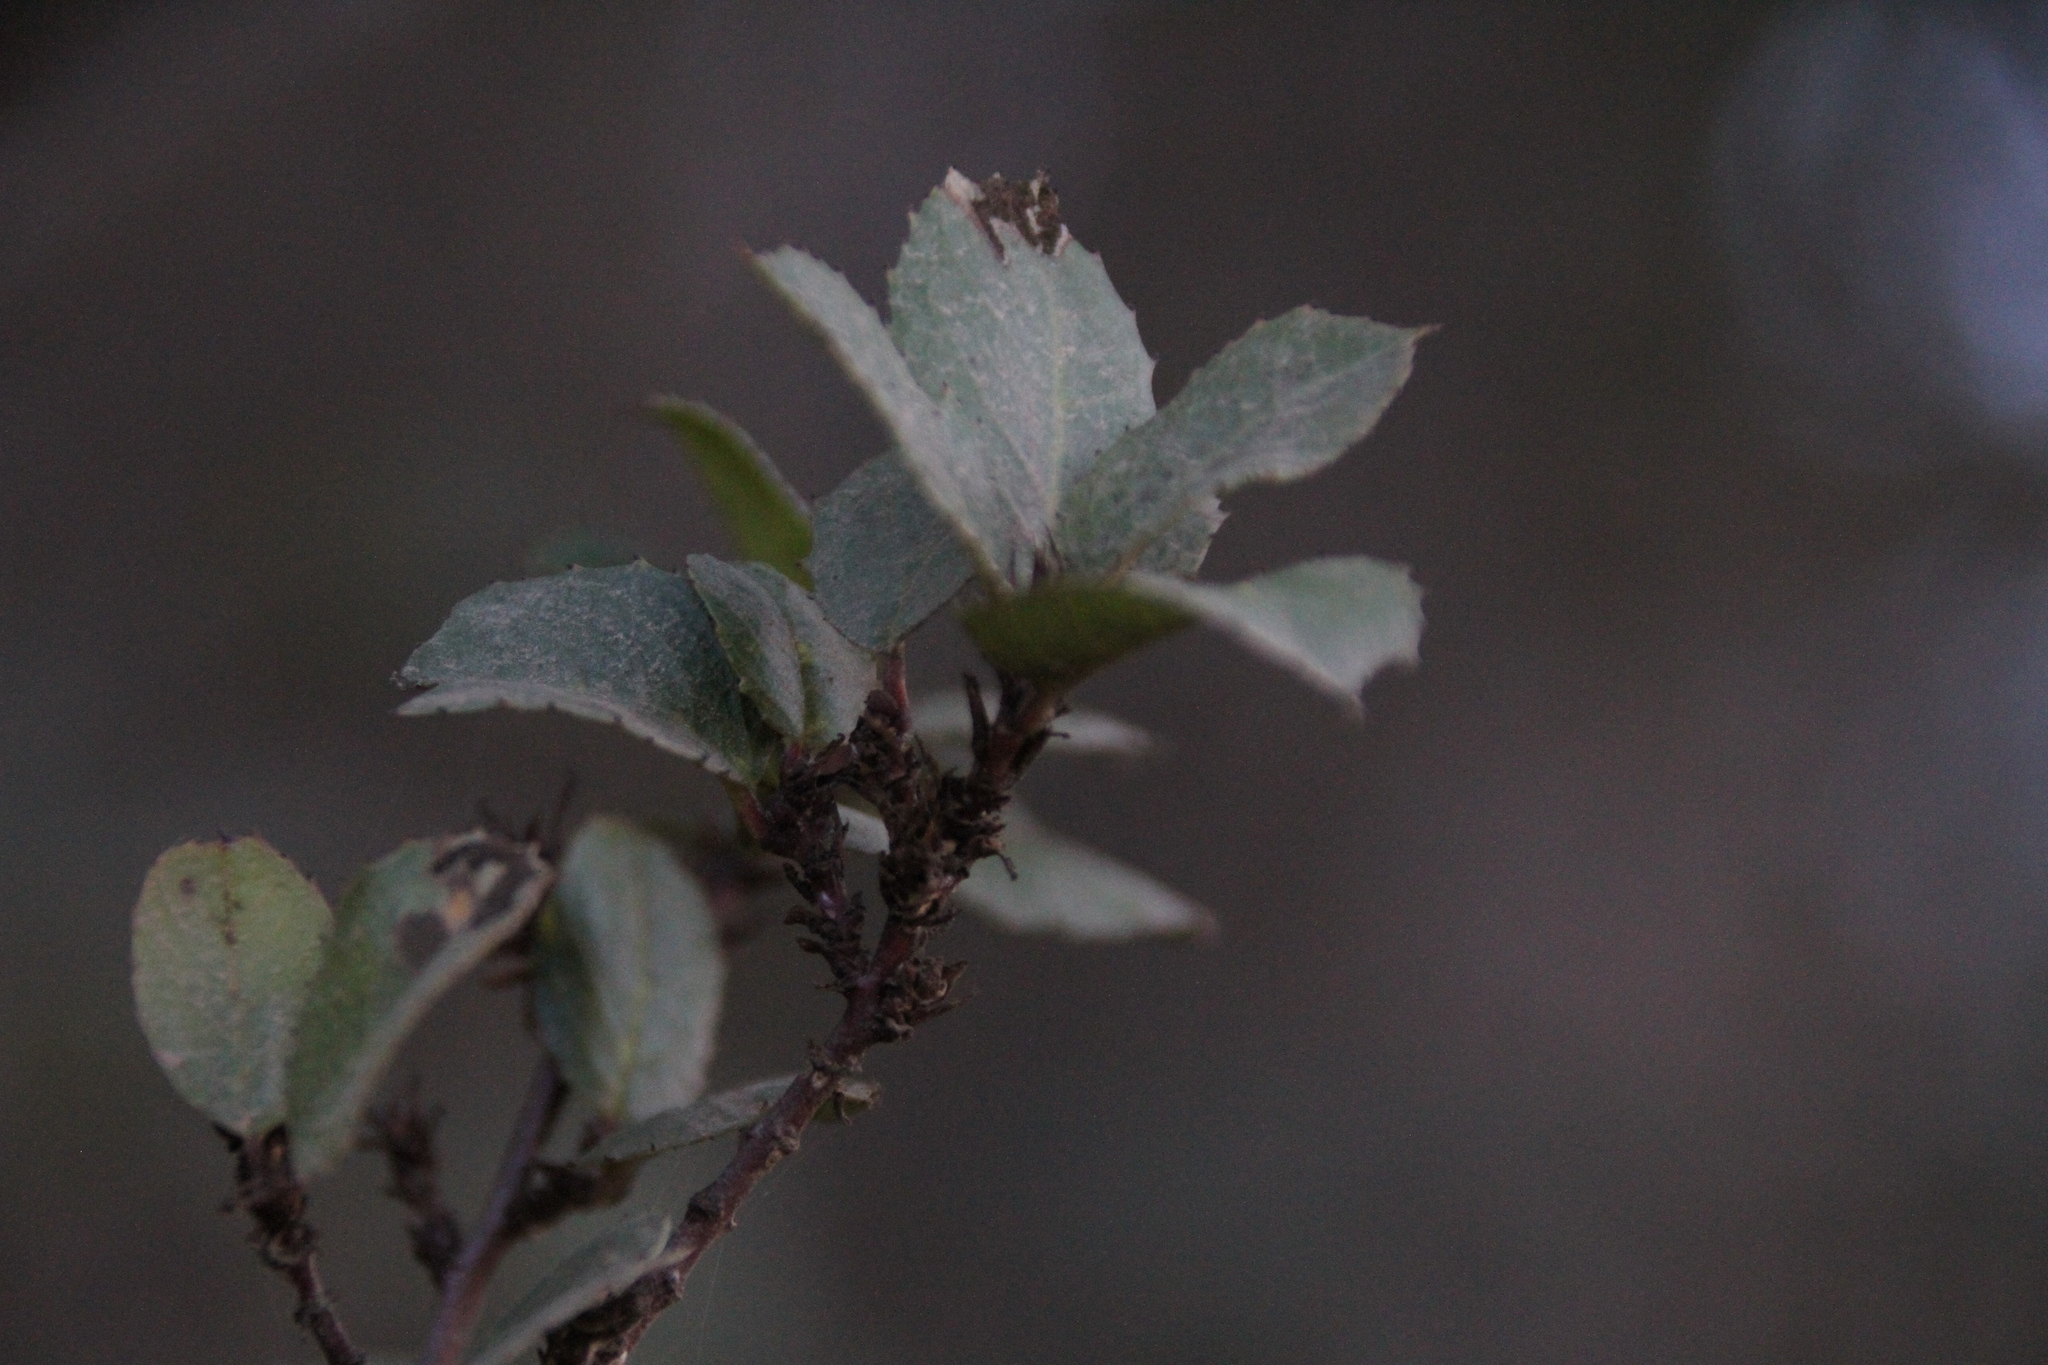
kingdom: Plantae
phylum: Tracheophyta
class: Magnoliopsida
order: Rosales
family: Rhamnaceae
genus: Endotropis
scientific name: Endotropis crocea
